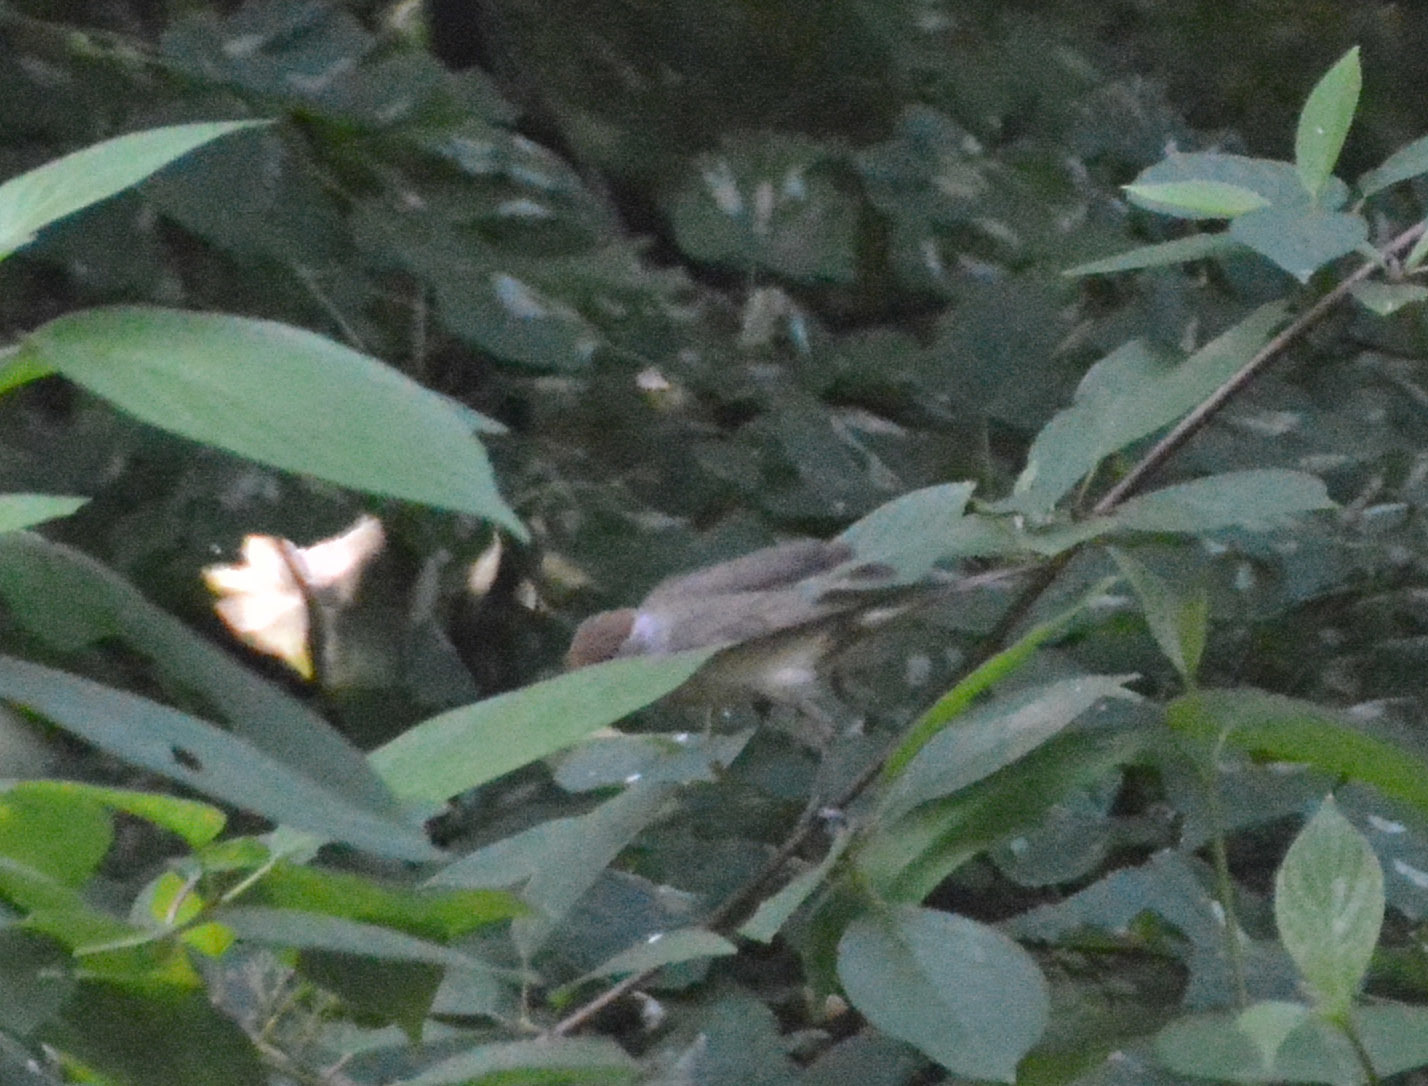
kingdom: Animalia
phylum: Chordata
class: Aves
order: Passeriformes
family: Sylviidae
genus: Sylvia
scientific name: Sylvia atricapilla
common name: Eurasian blackcap
